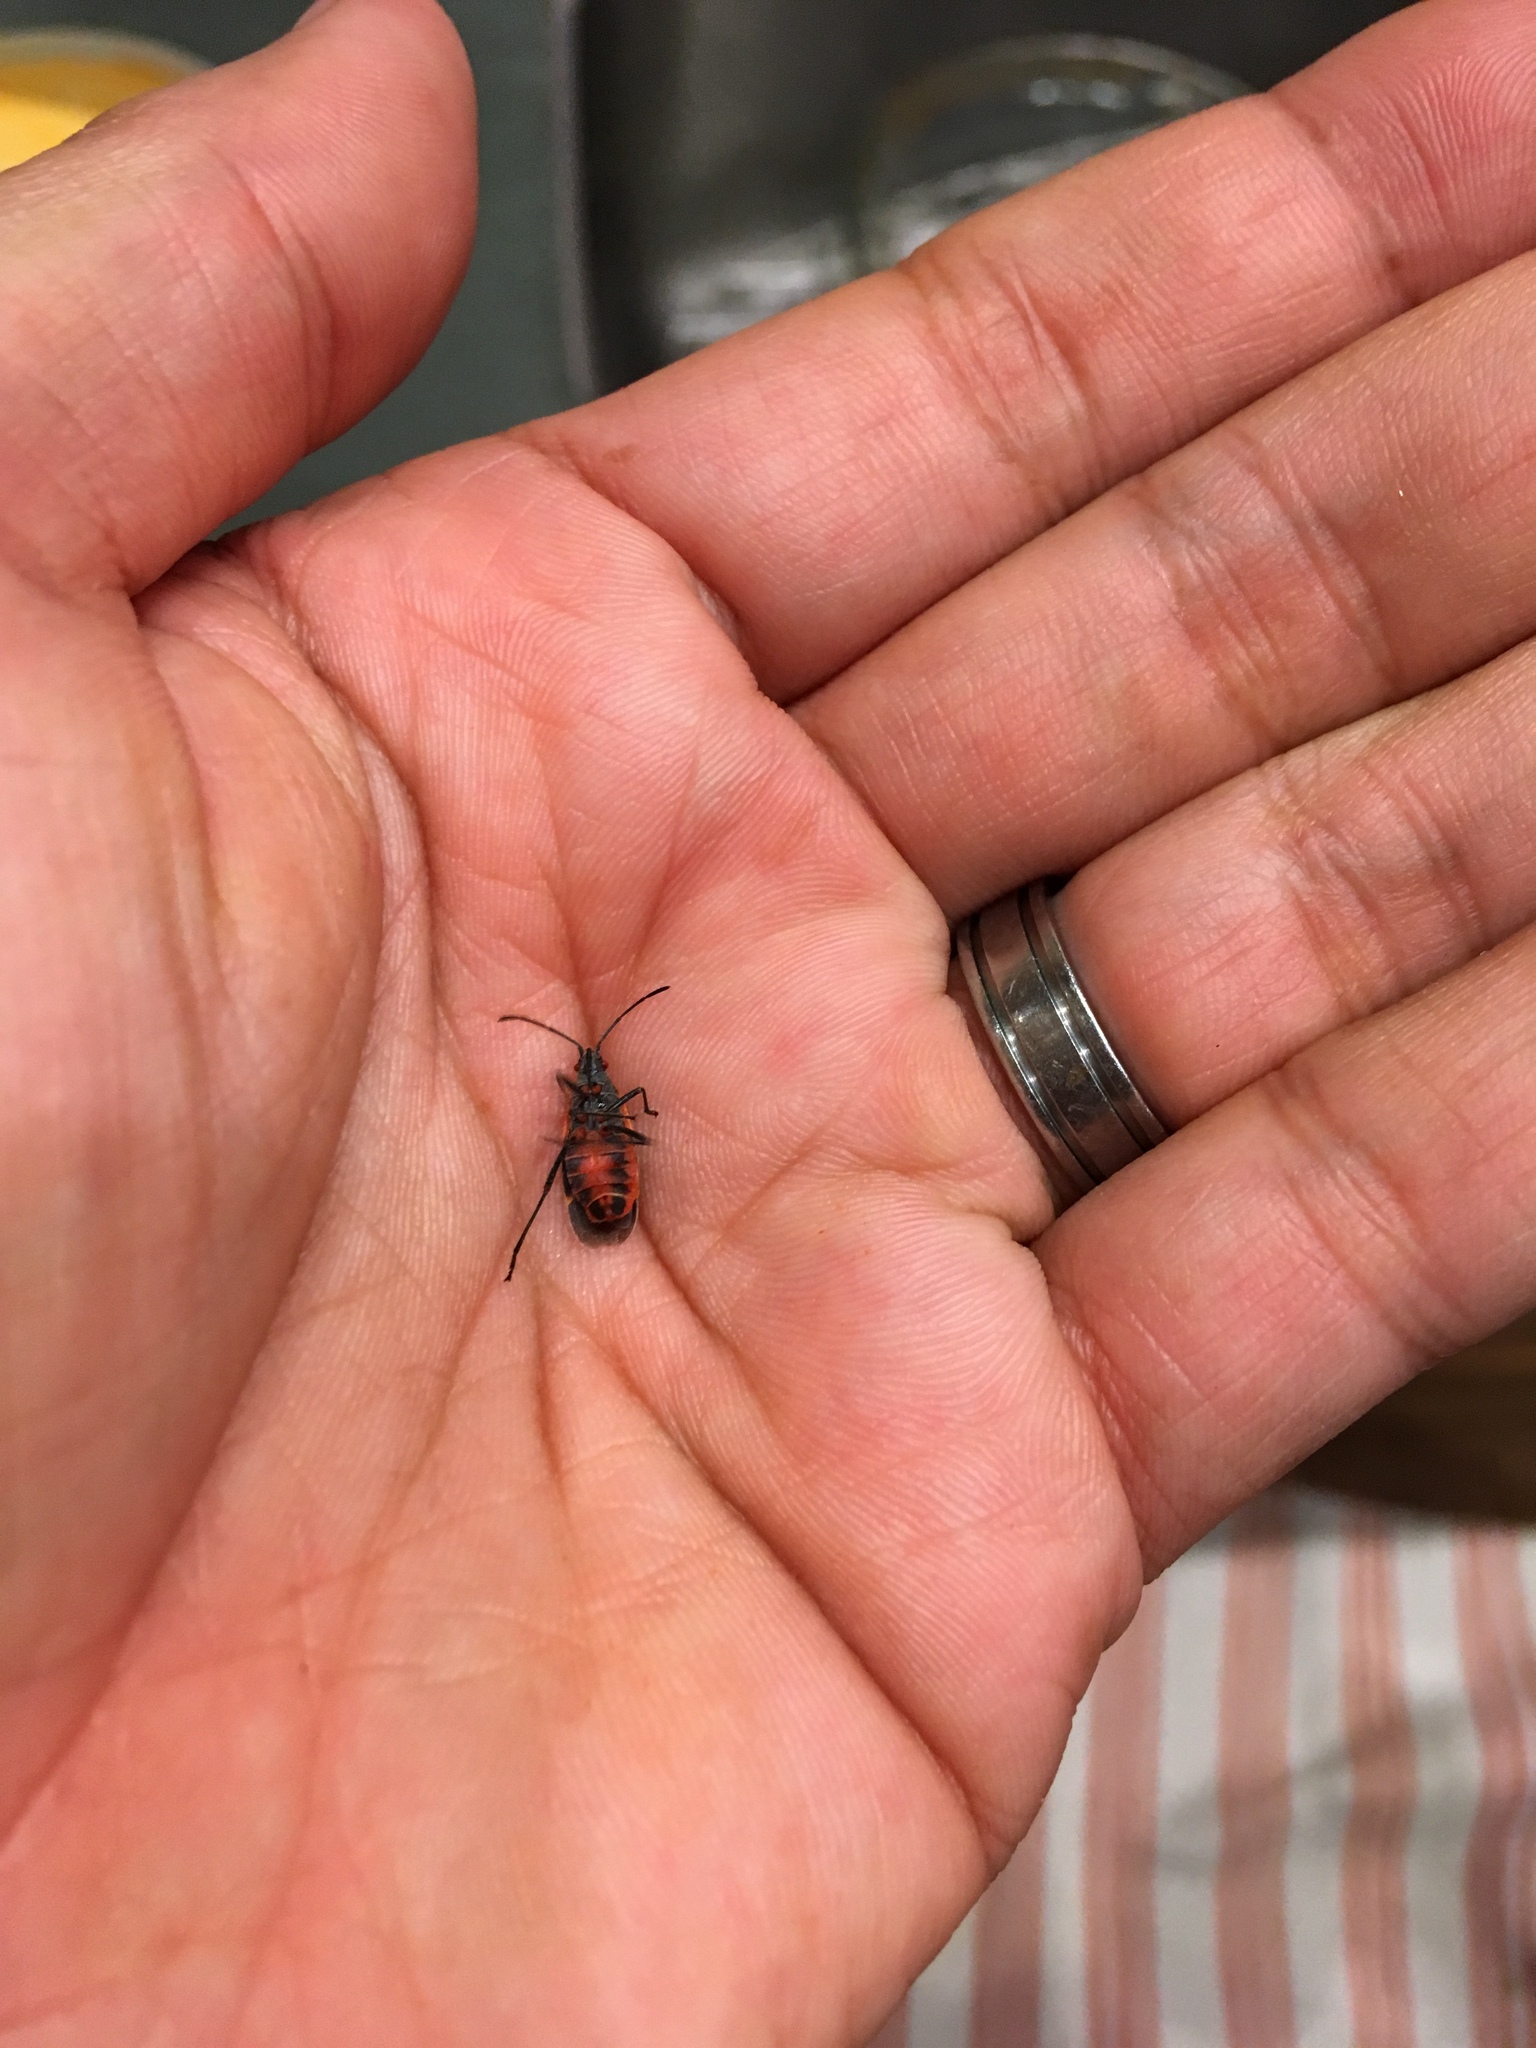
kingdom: Animalia
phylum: Arthropoda
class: Insecta
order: Hemiptera
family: Rhopalidae
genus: Boisea
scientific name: Boisea trivittata
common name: Boxelder bug
